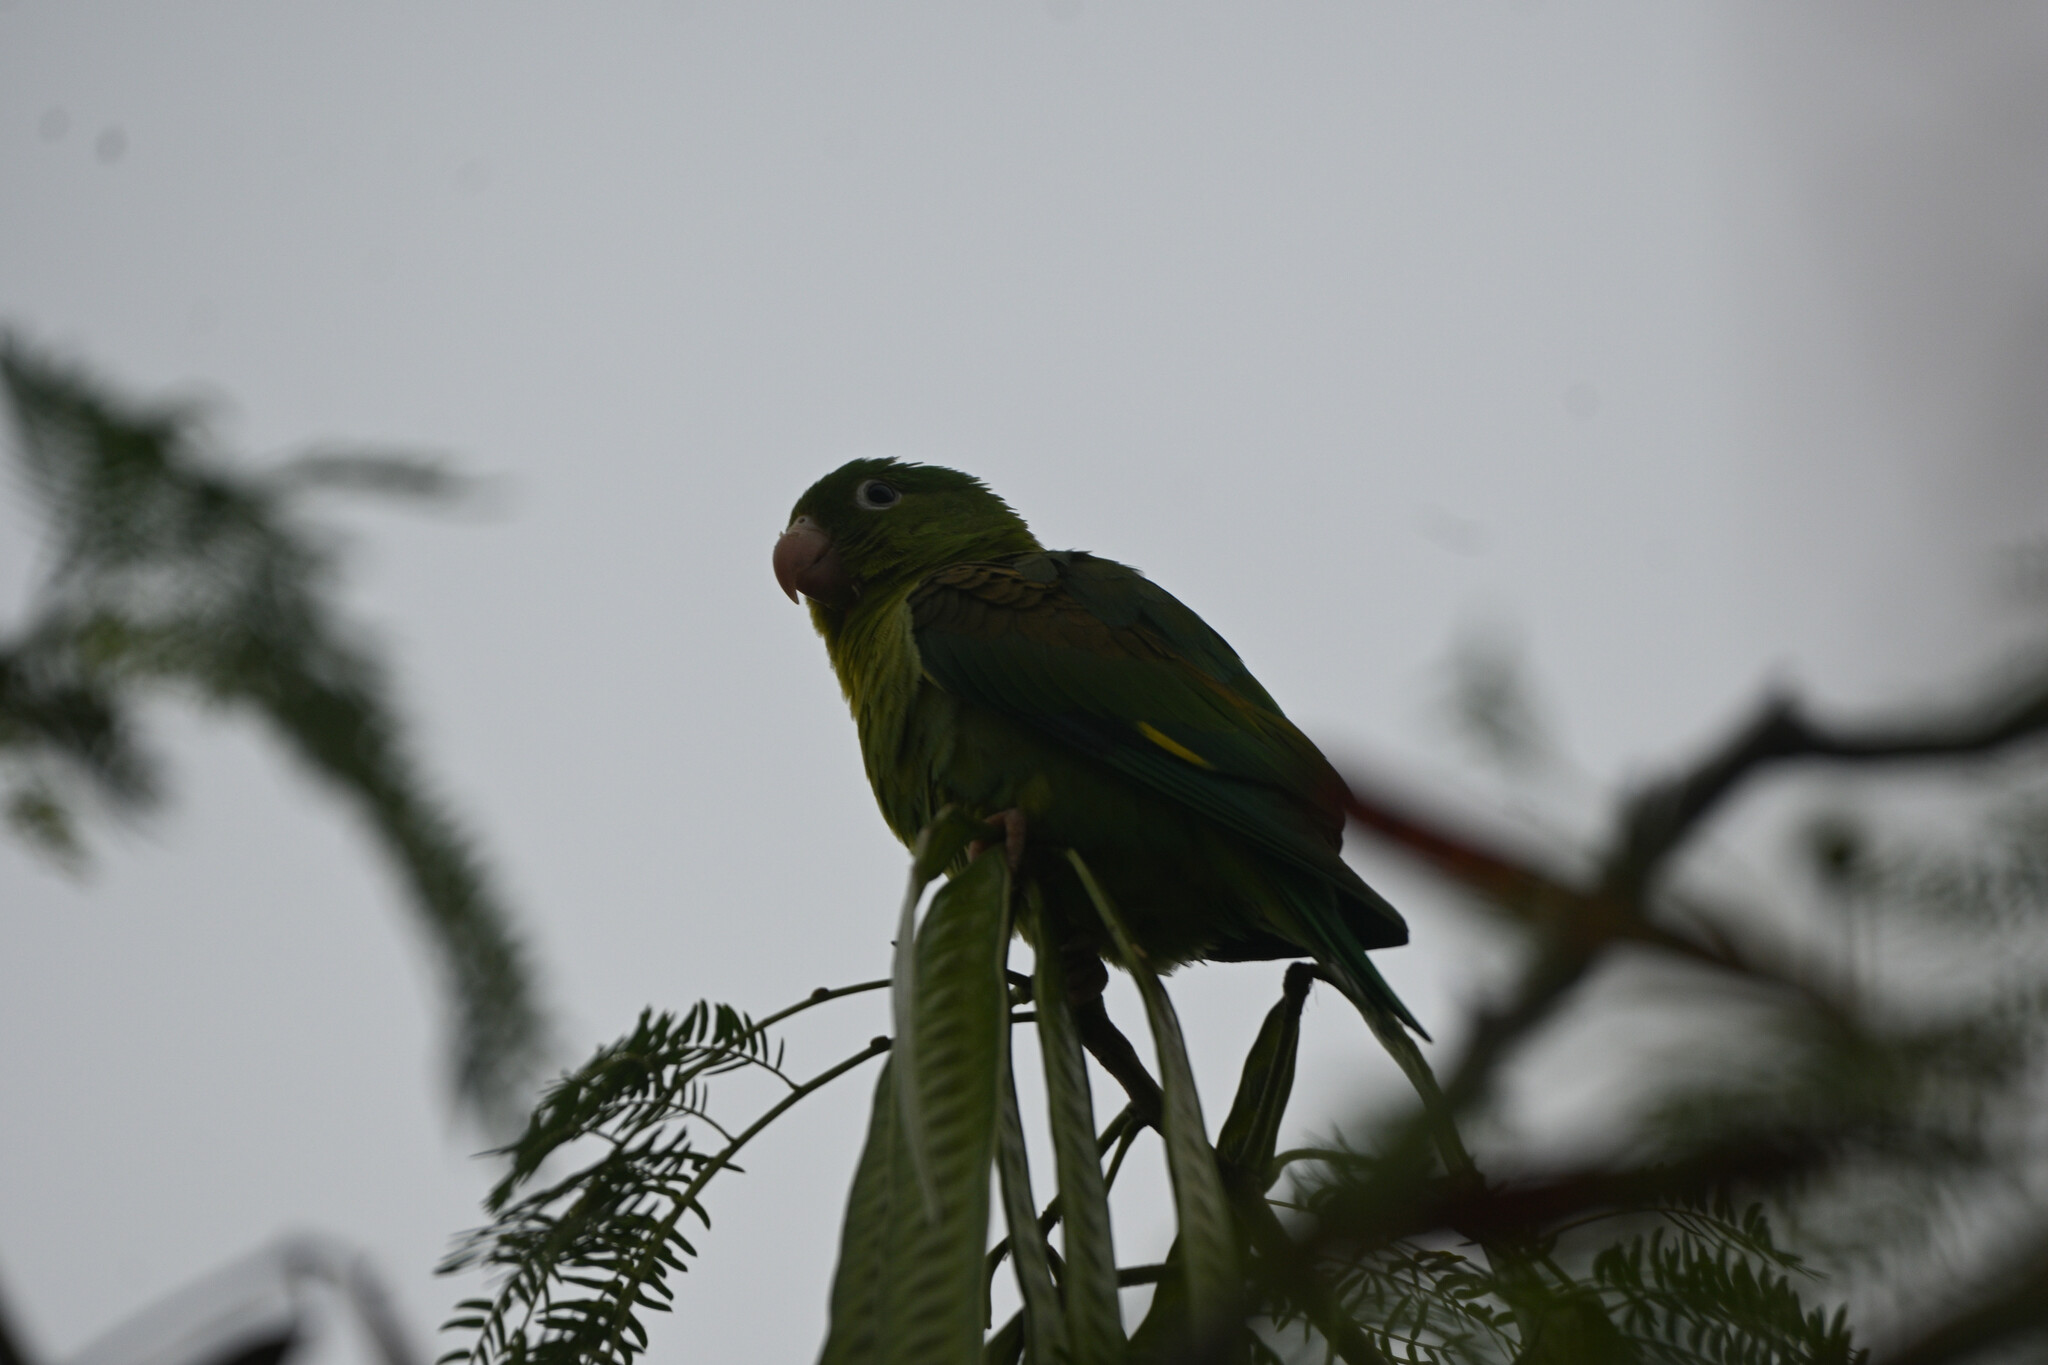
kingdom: Animalia
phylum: Chordata
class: Aves
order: Psittaciformes
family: Psittacidae
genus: Brotogeris
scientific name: Brotogeris jugularis
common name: Orange-chinned parakeet
